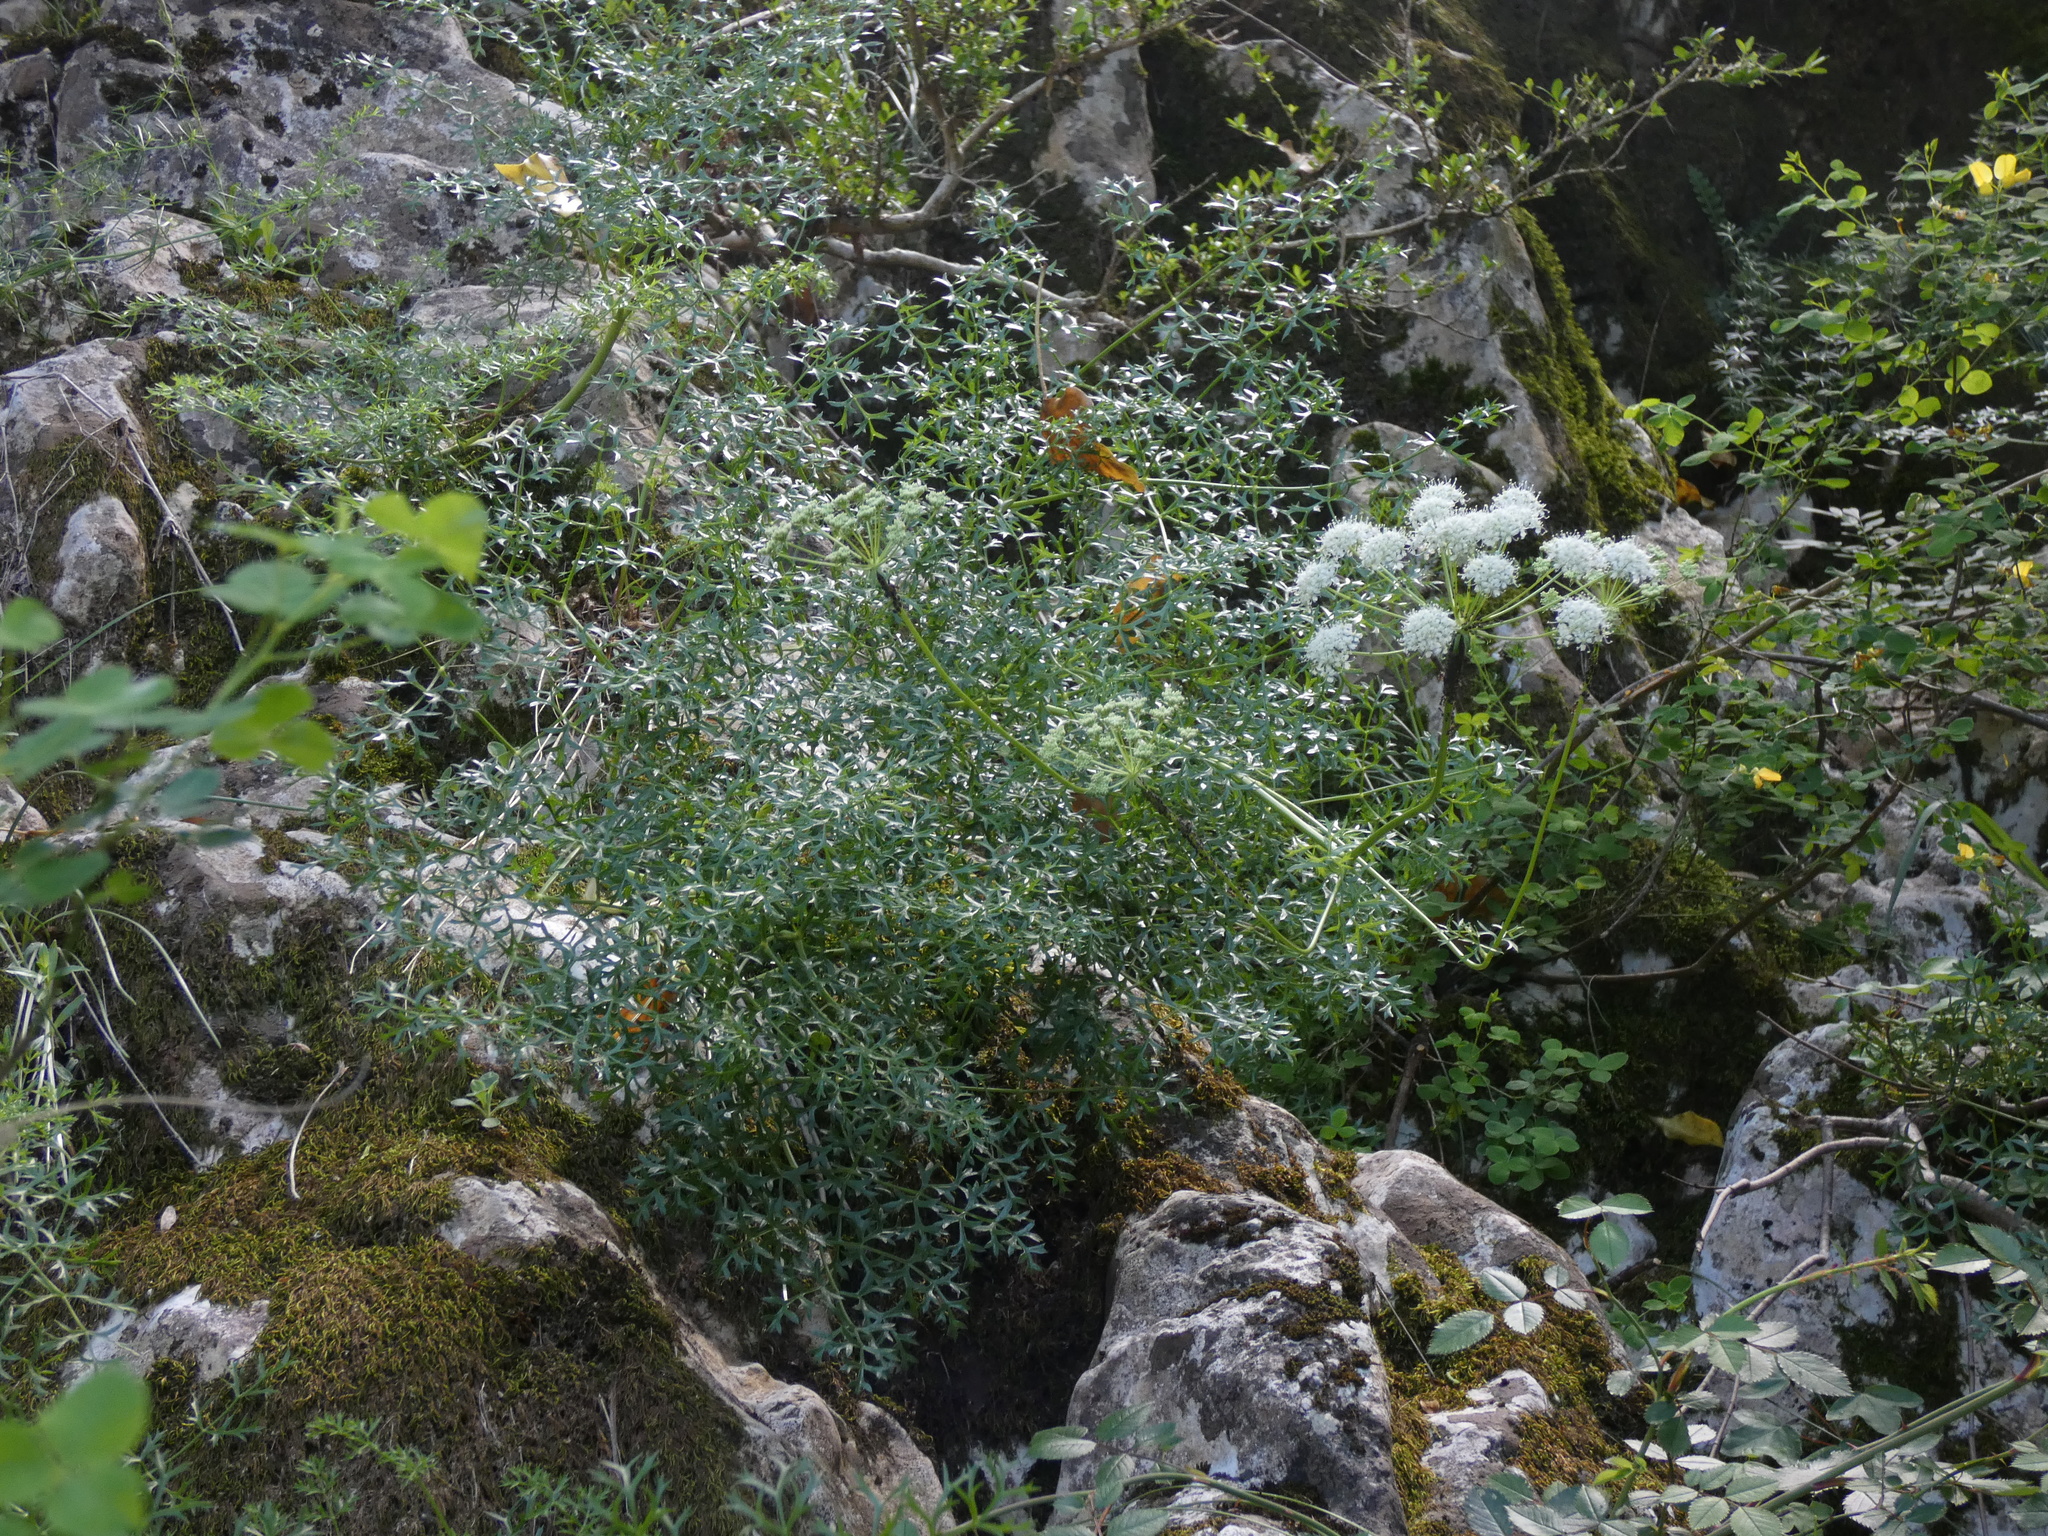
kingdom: Plantae
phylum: Tracheophyta
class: Magnoliopsida
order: Apiales
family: Apiaceae
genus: Laserpitium
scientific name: Laserpitium gallicum
